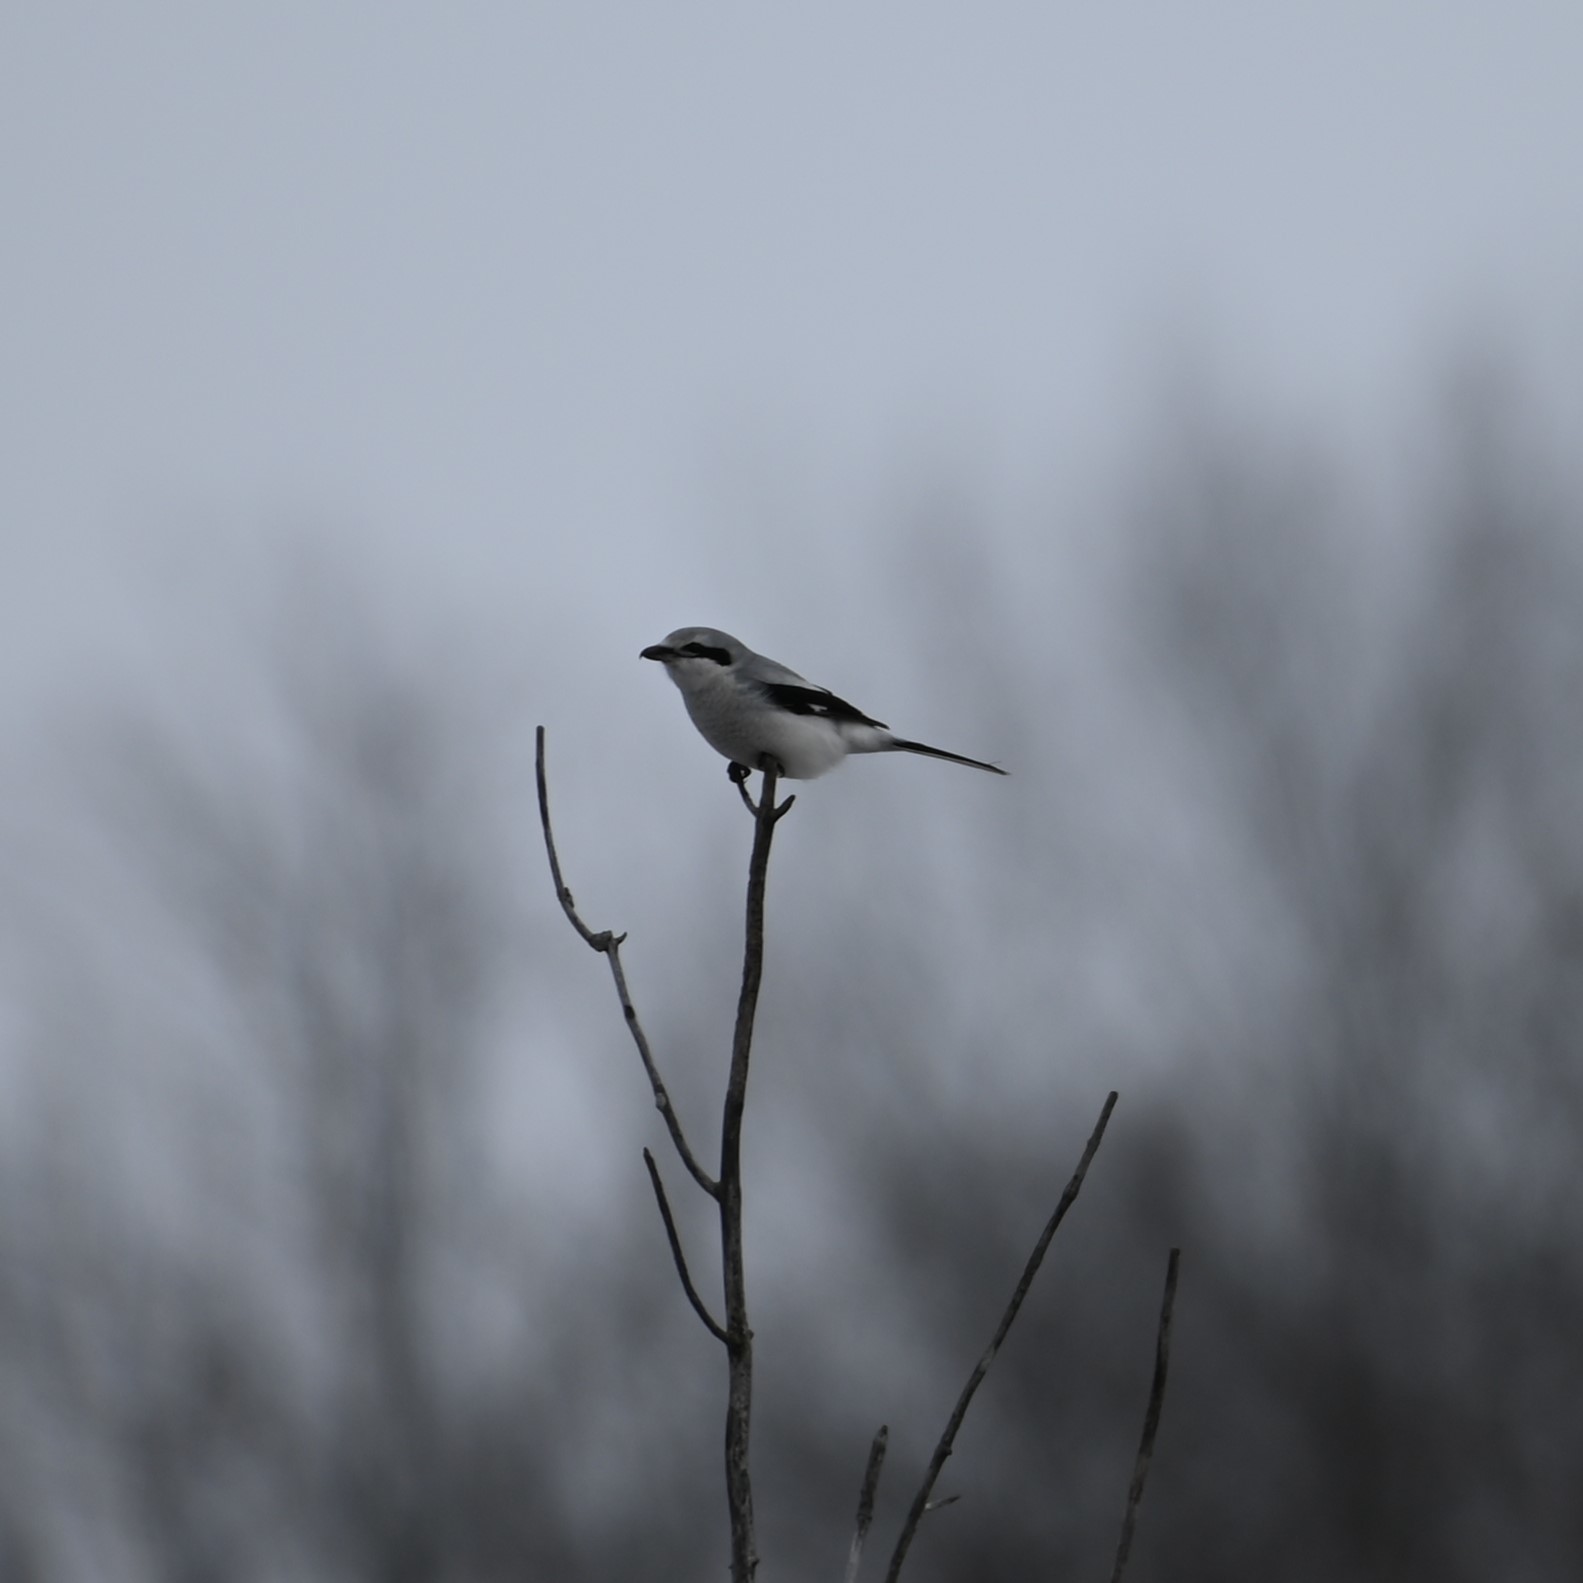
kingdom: Animalia
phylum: Chordata
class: Aves
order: Passeriformes
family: Laniidae
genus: Lanius
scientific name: Lanius borealis
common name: Northern shrike
